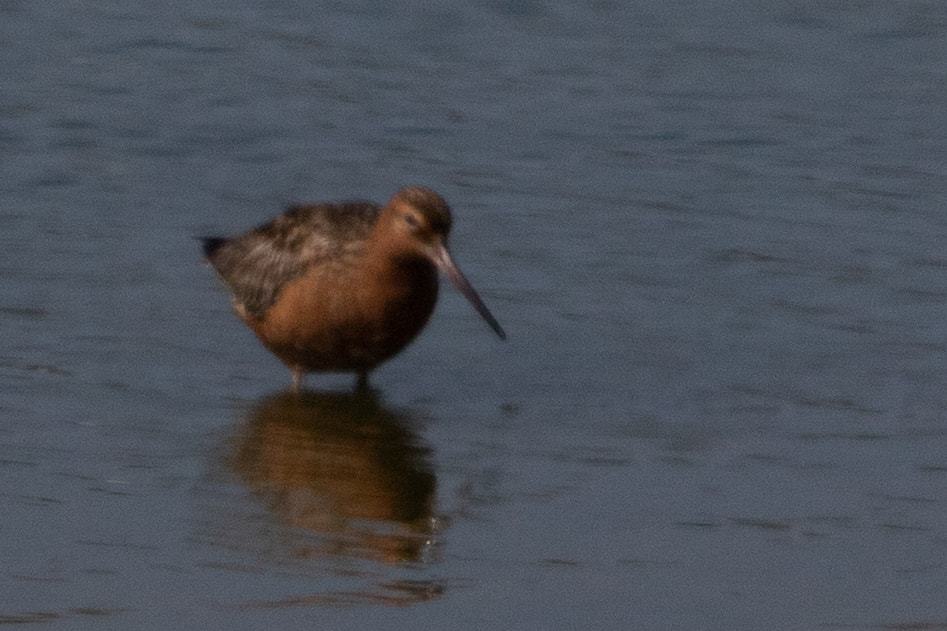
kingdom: Animalia
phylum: Chordata
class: Aves
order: Charadriiformes
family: Scolopacidae
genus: Limosa
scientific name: Limosa lapponica
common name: Bar-tailed godwit
